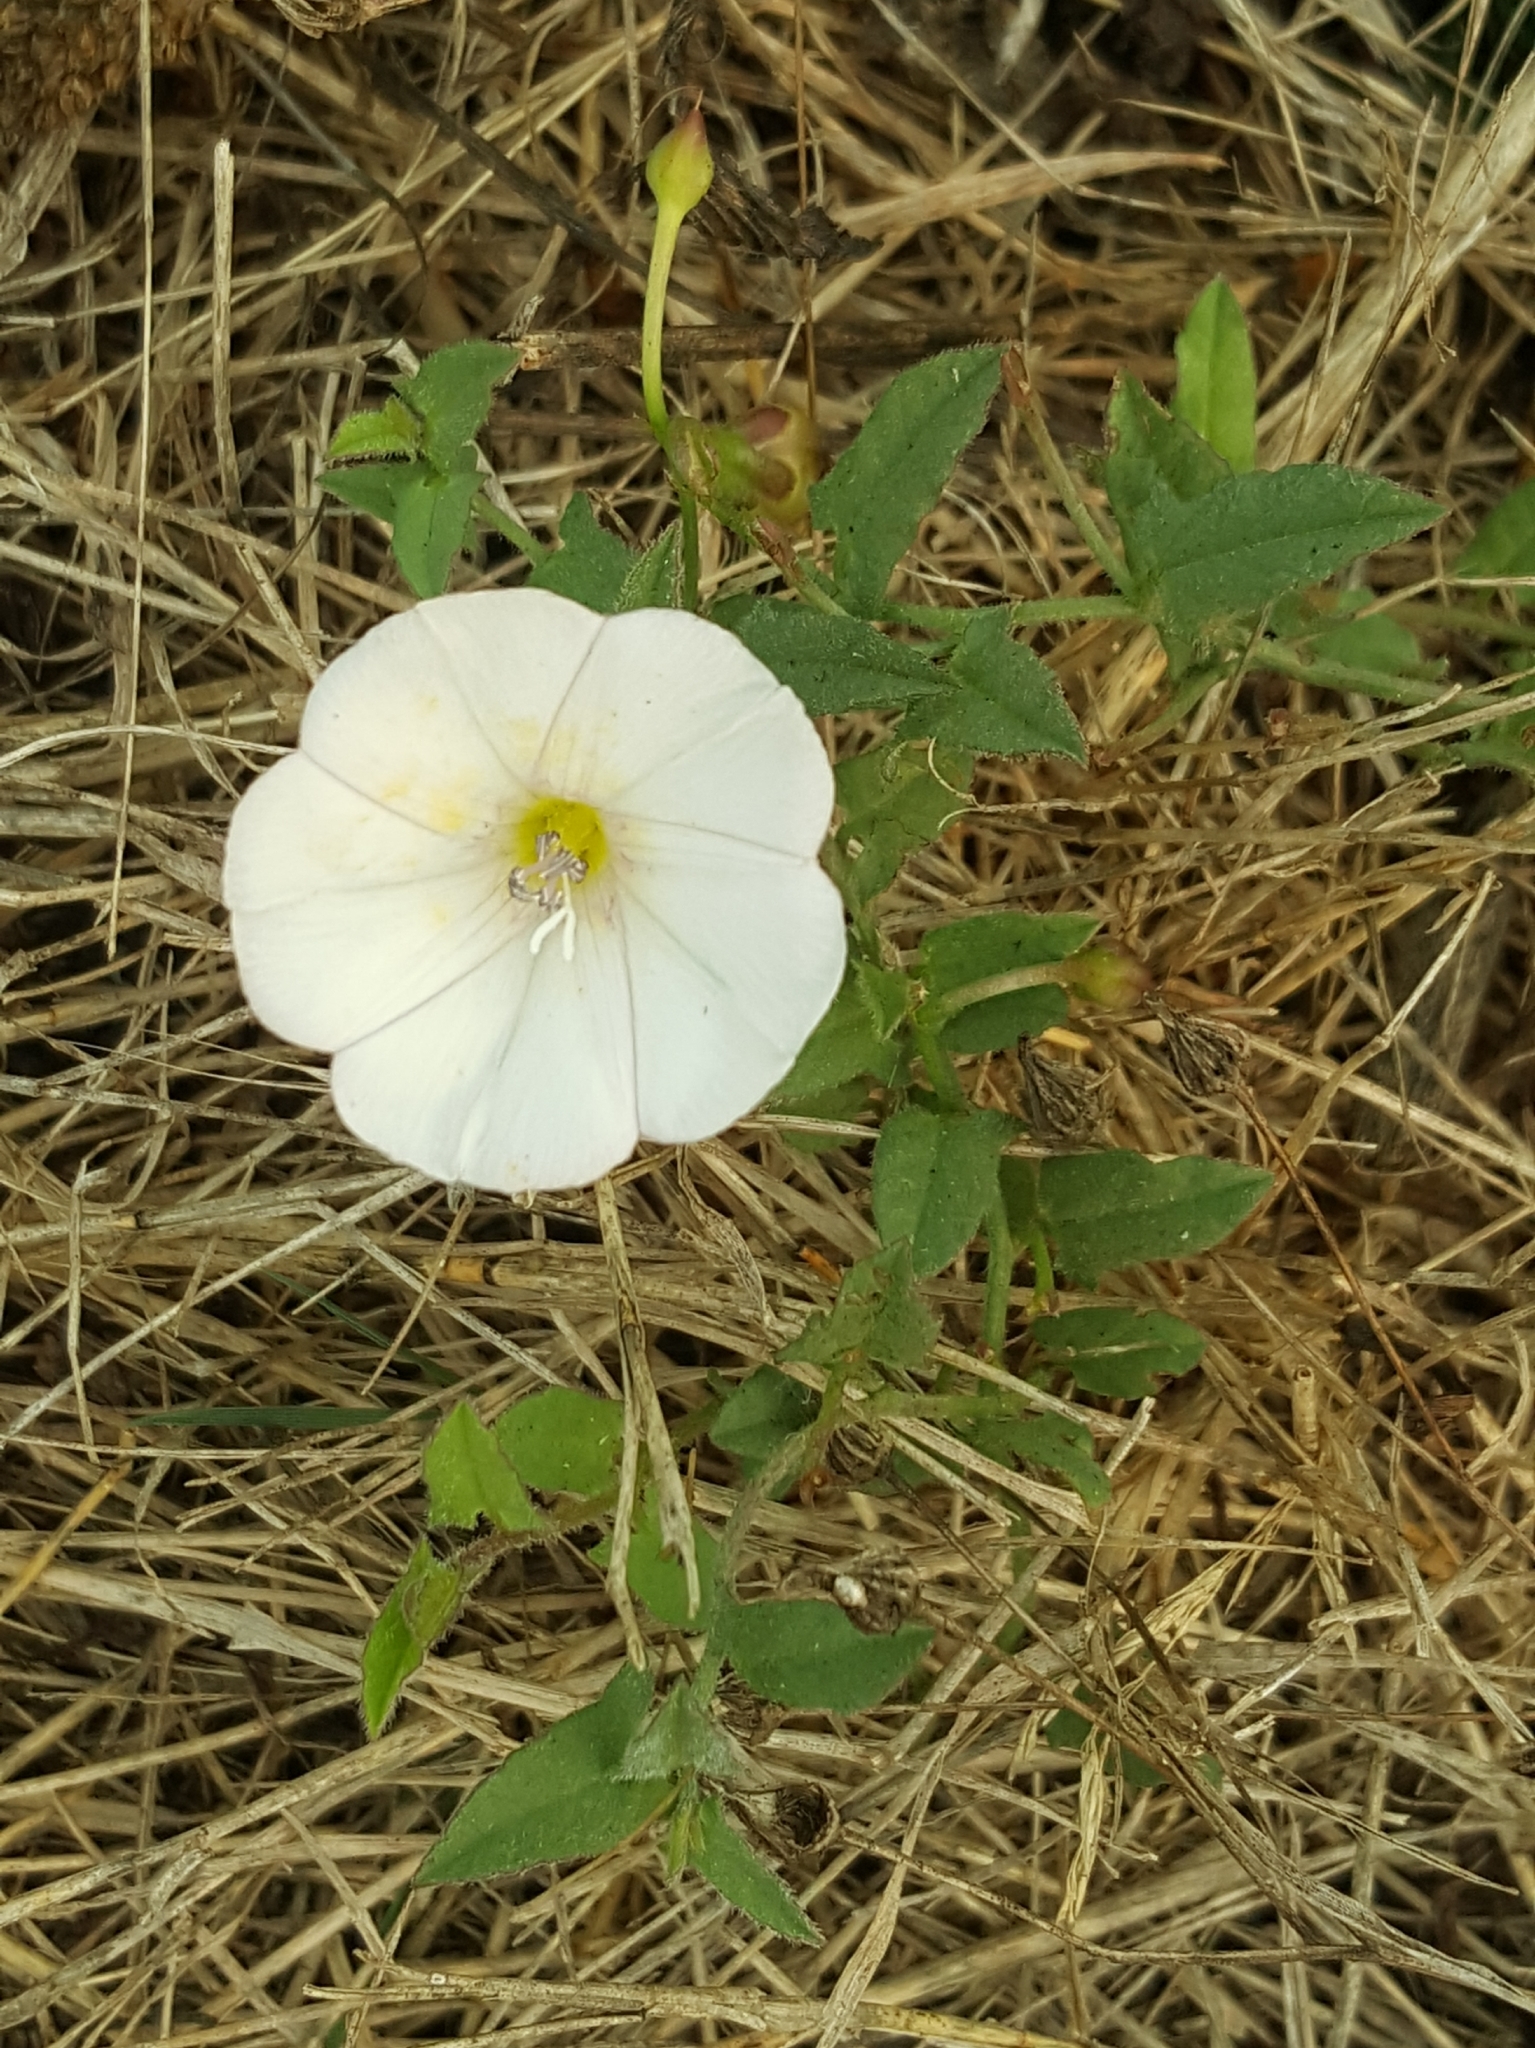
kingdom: Plantae
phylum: Tracheophyta
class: Magnoliopsida
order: Solanales
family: Convolvulaceae
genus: Convolvulus
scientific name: Convolvulus arvensis
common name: Field bindweed
